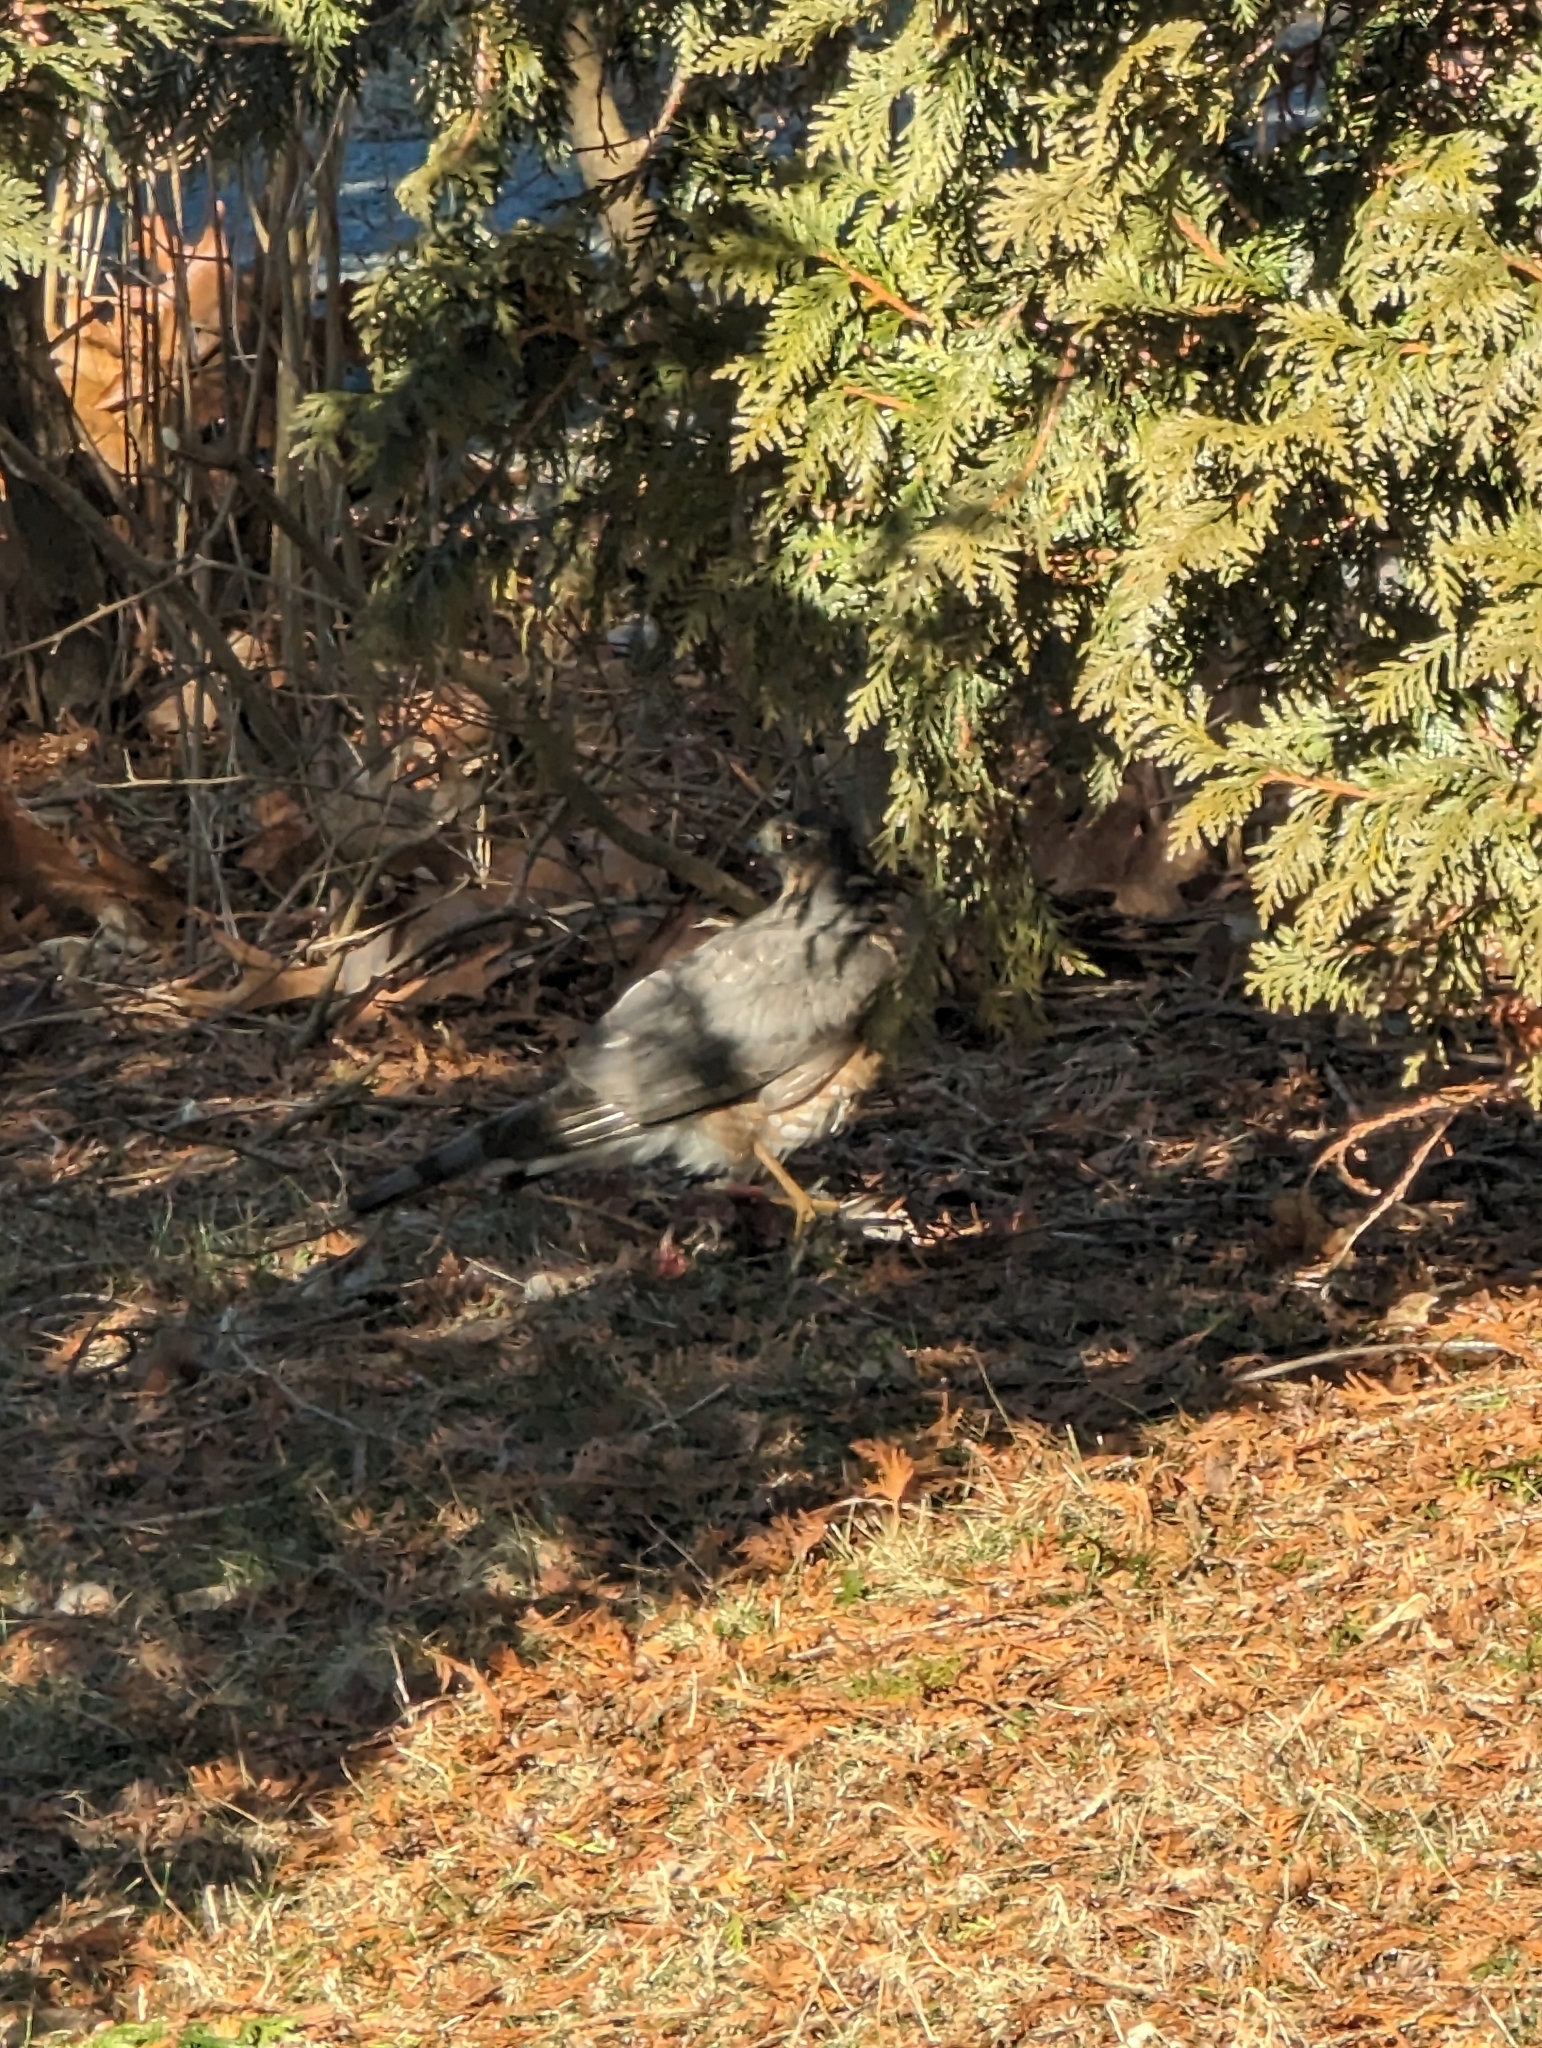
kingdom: Animalia
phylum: Chordata
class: Aves
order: Accipitriformes
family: Accipitridae
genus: Accipiter
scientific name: Accipiter cooperii
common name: Cooper's hawk
